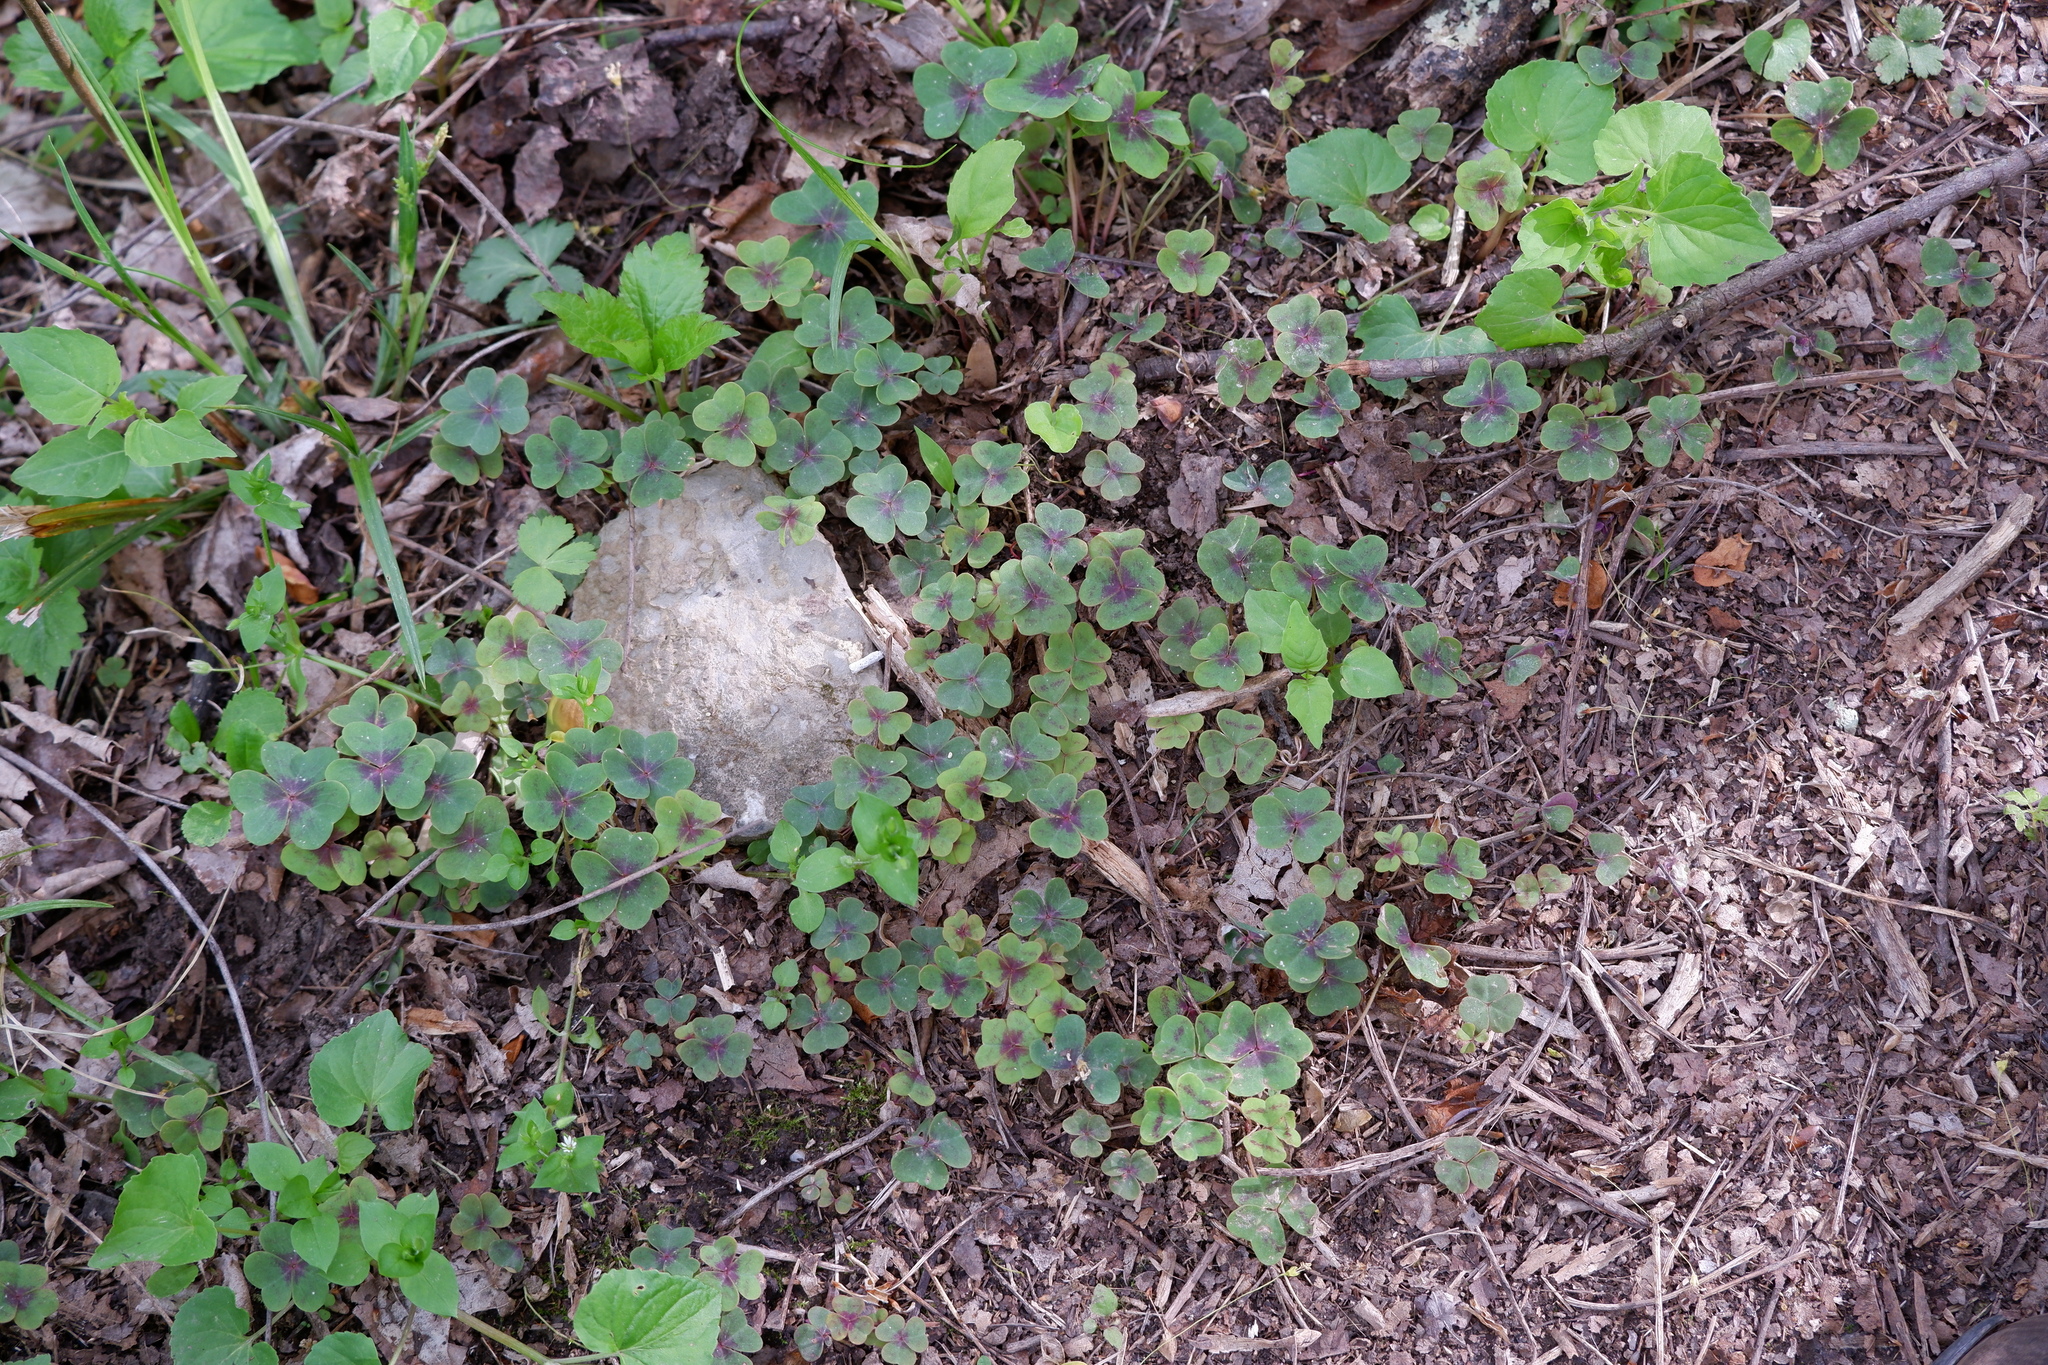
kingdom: Plantae
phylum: Tracheophyta
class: Magnoliopsida
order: Oxalidales
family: Oxalidaceae
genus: Oxalis
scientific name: Oxalis violacea
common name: Violet wood-sorrel
